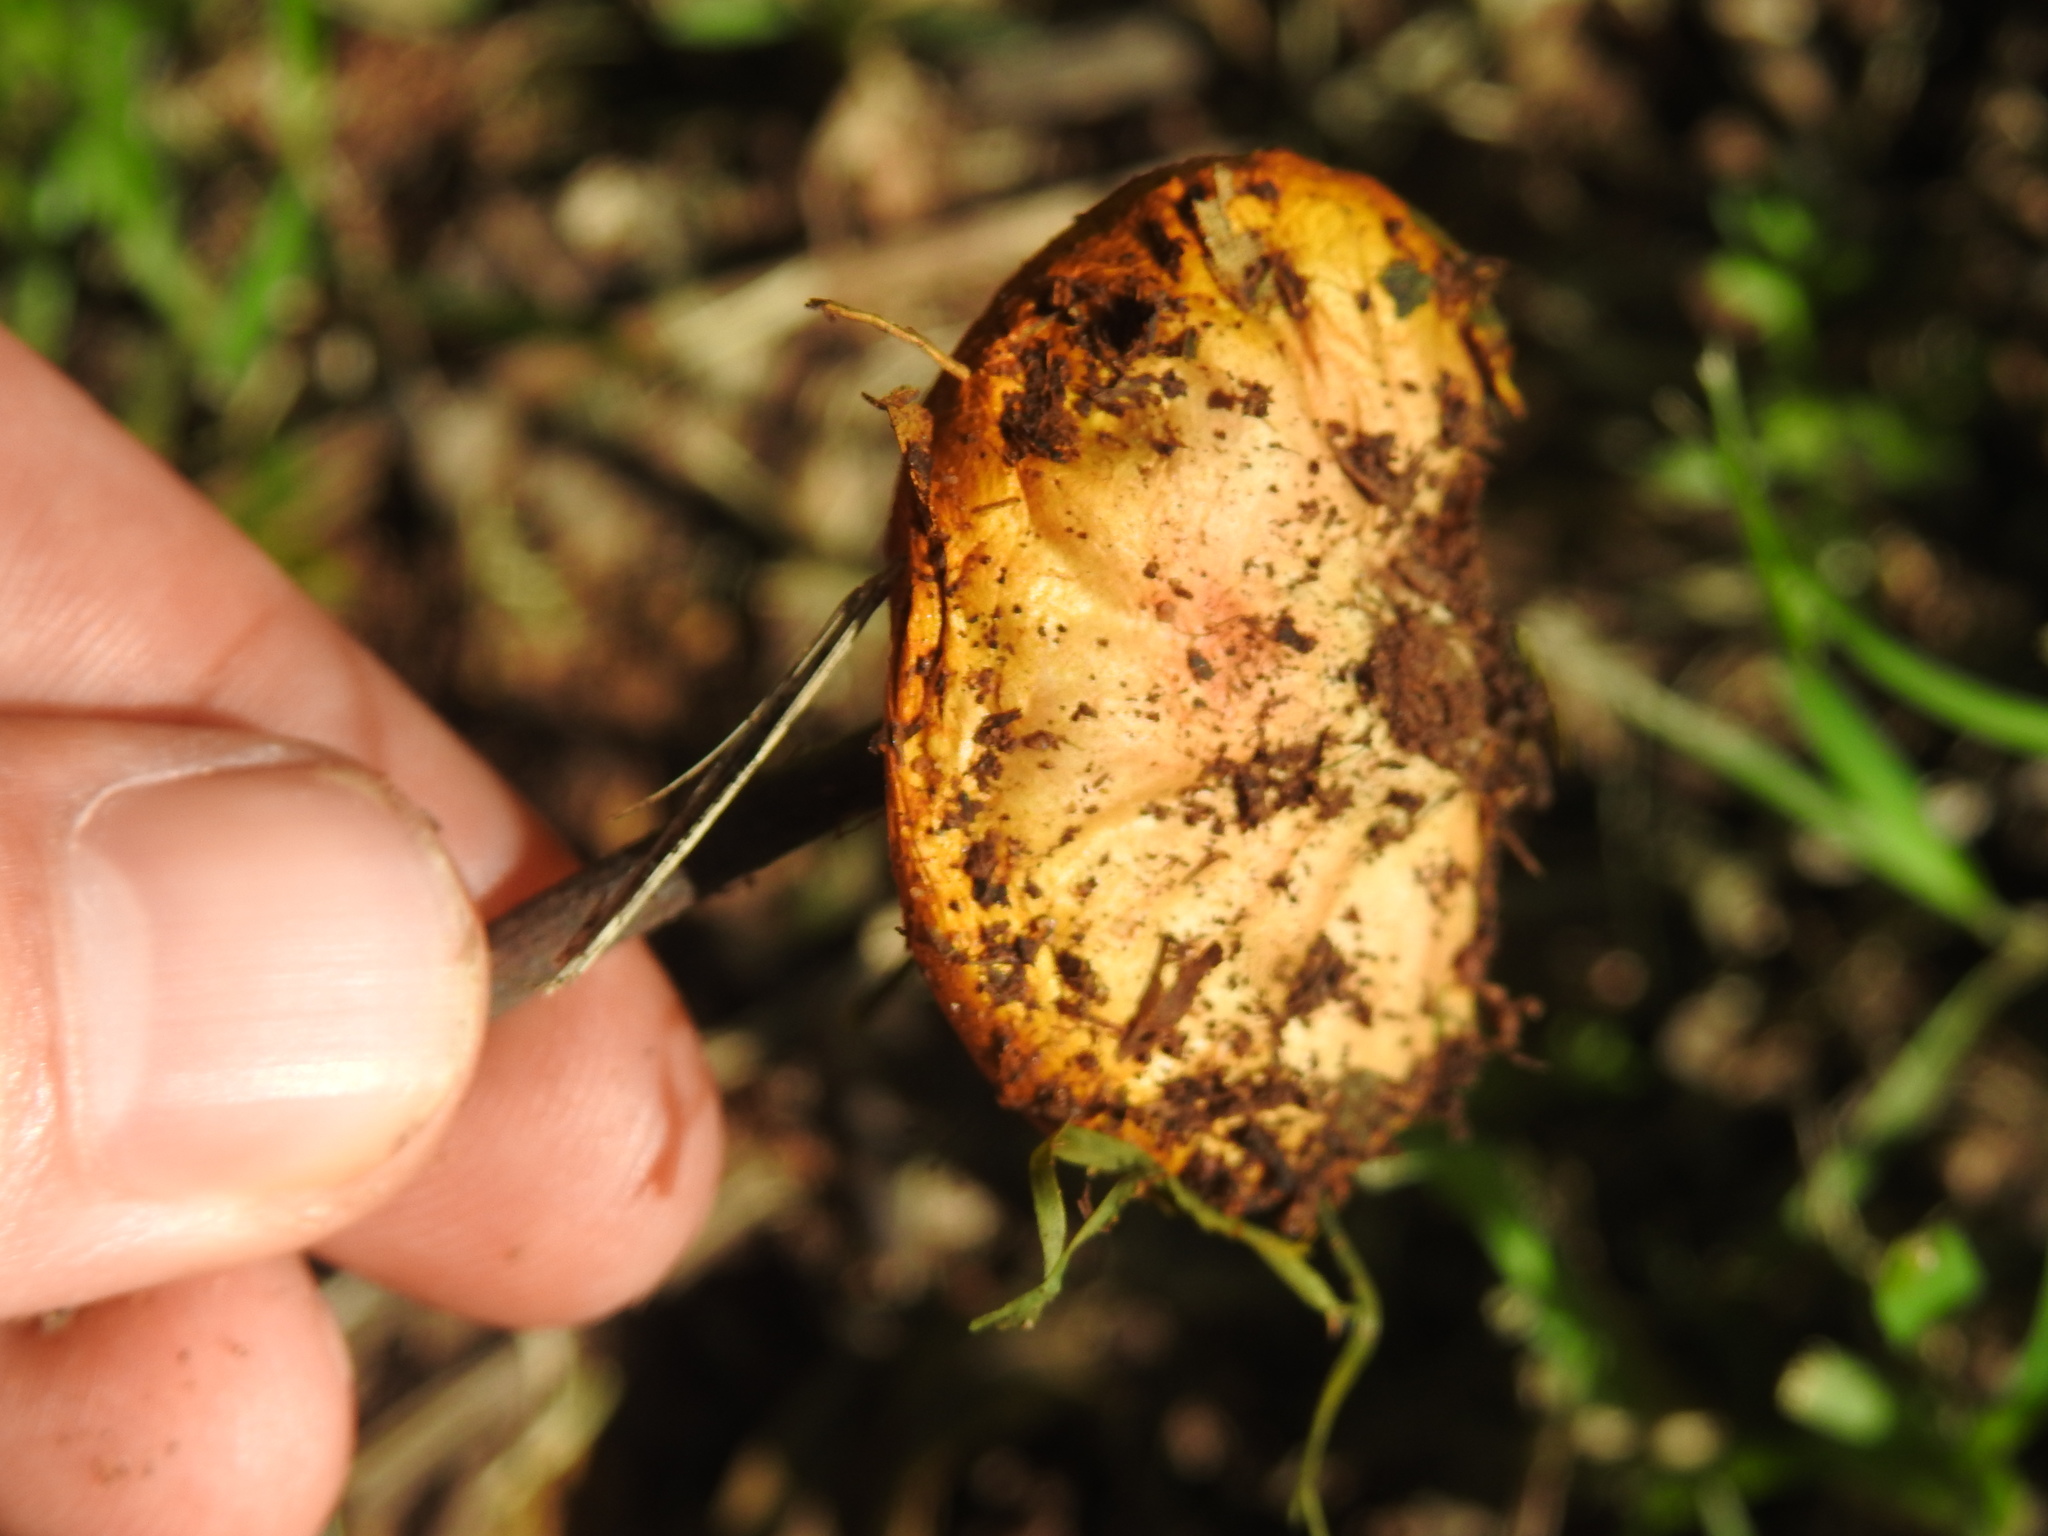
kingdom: Fungi
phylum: Basidiomycota
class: Agaricomycetes
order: Agaricales
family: Lycoperdaceae
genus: Calvatia
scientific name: Calvatia rugosa
